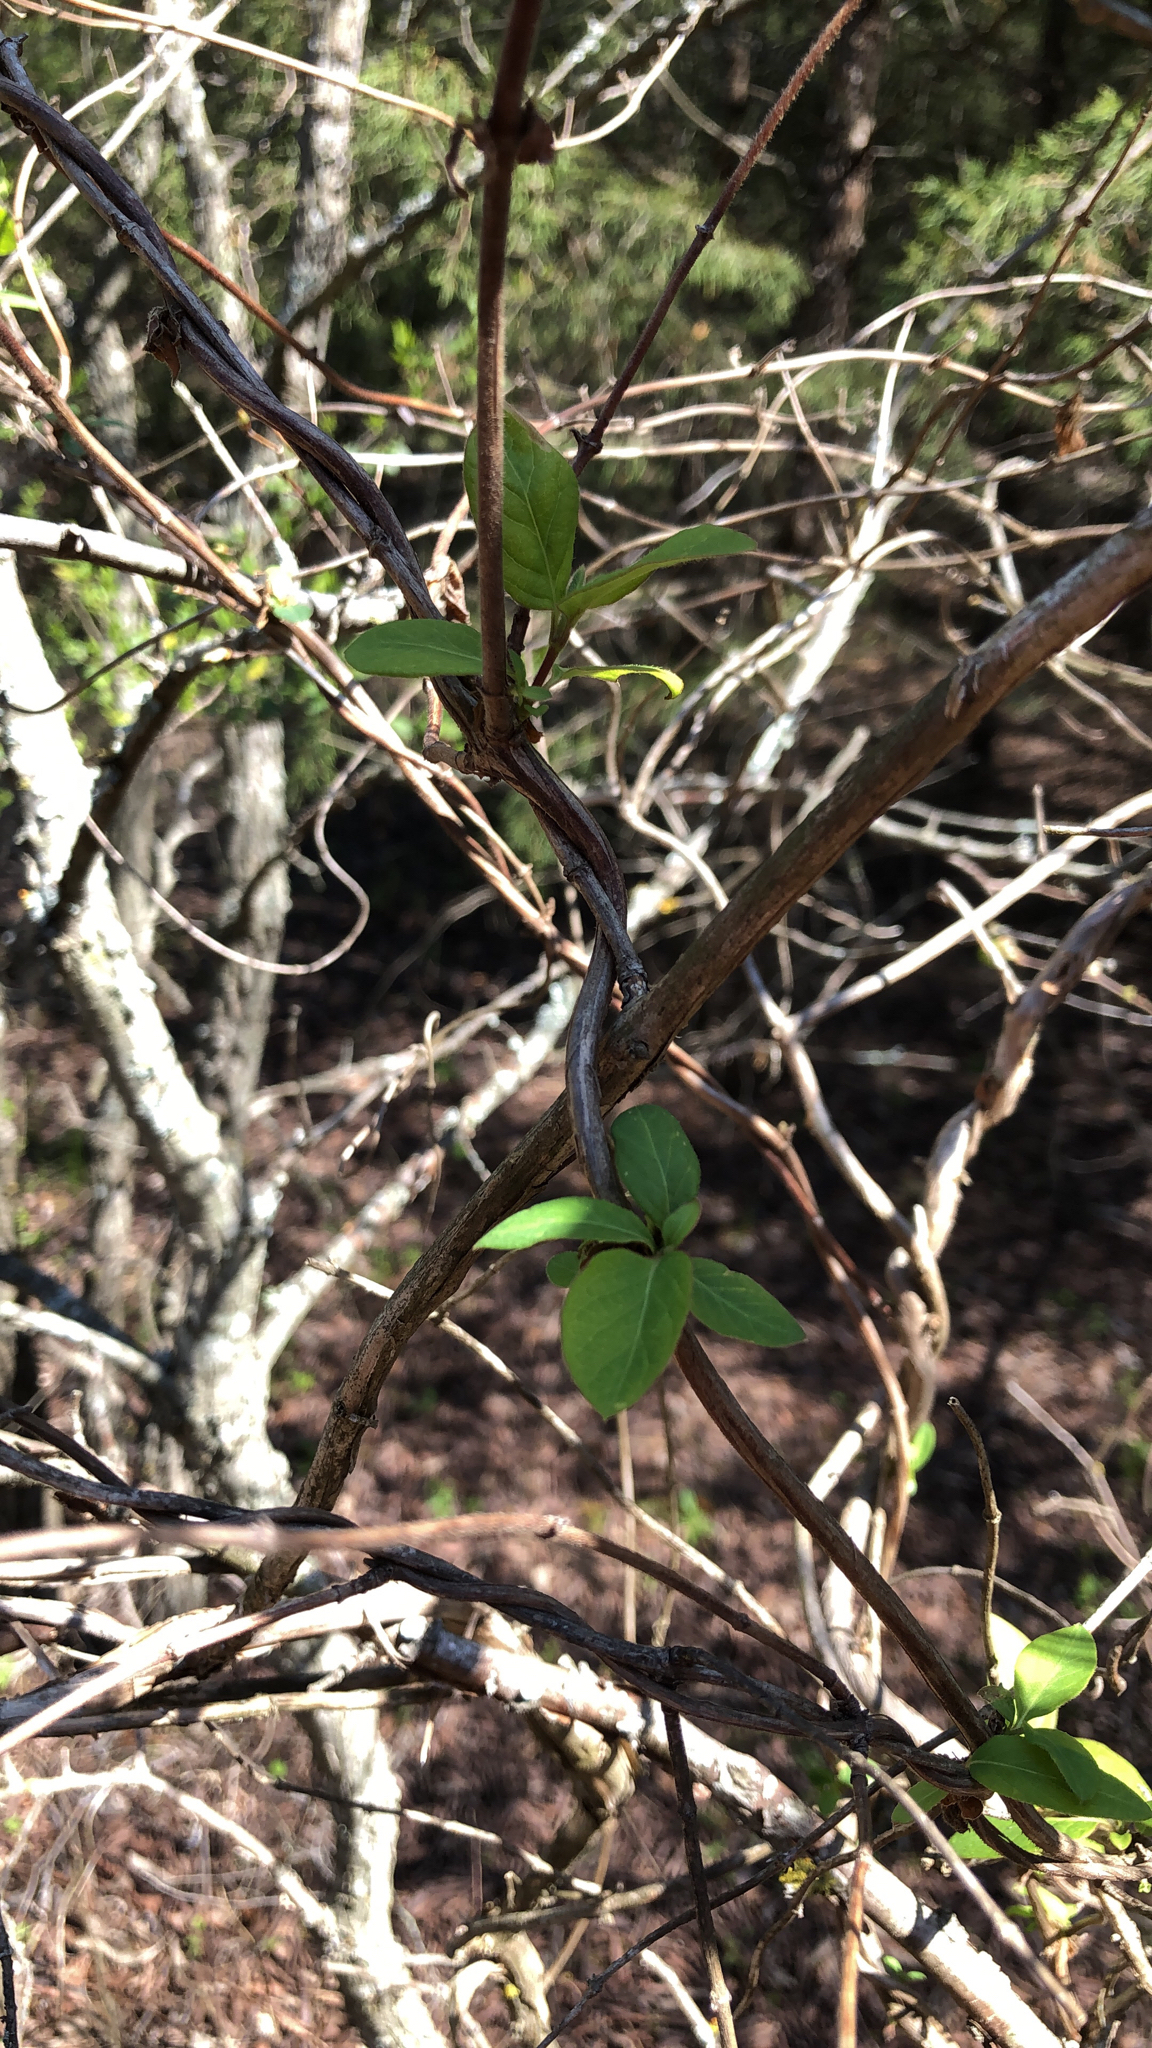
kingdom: Plantae
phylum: Tracheophyta
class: Magnoliopsida
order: Dipsacales
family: Caprifoliaceae
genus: Lonicera
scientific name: Lonicera japonica
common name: Japanese honeysuckle
